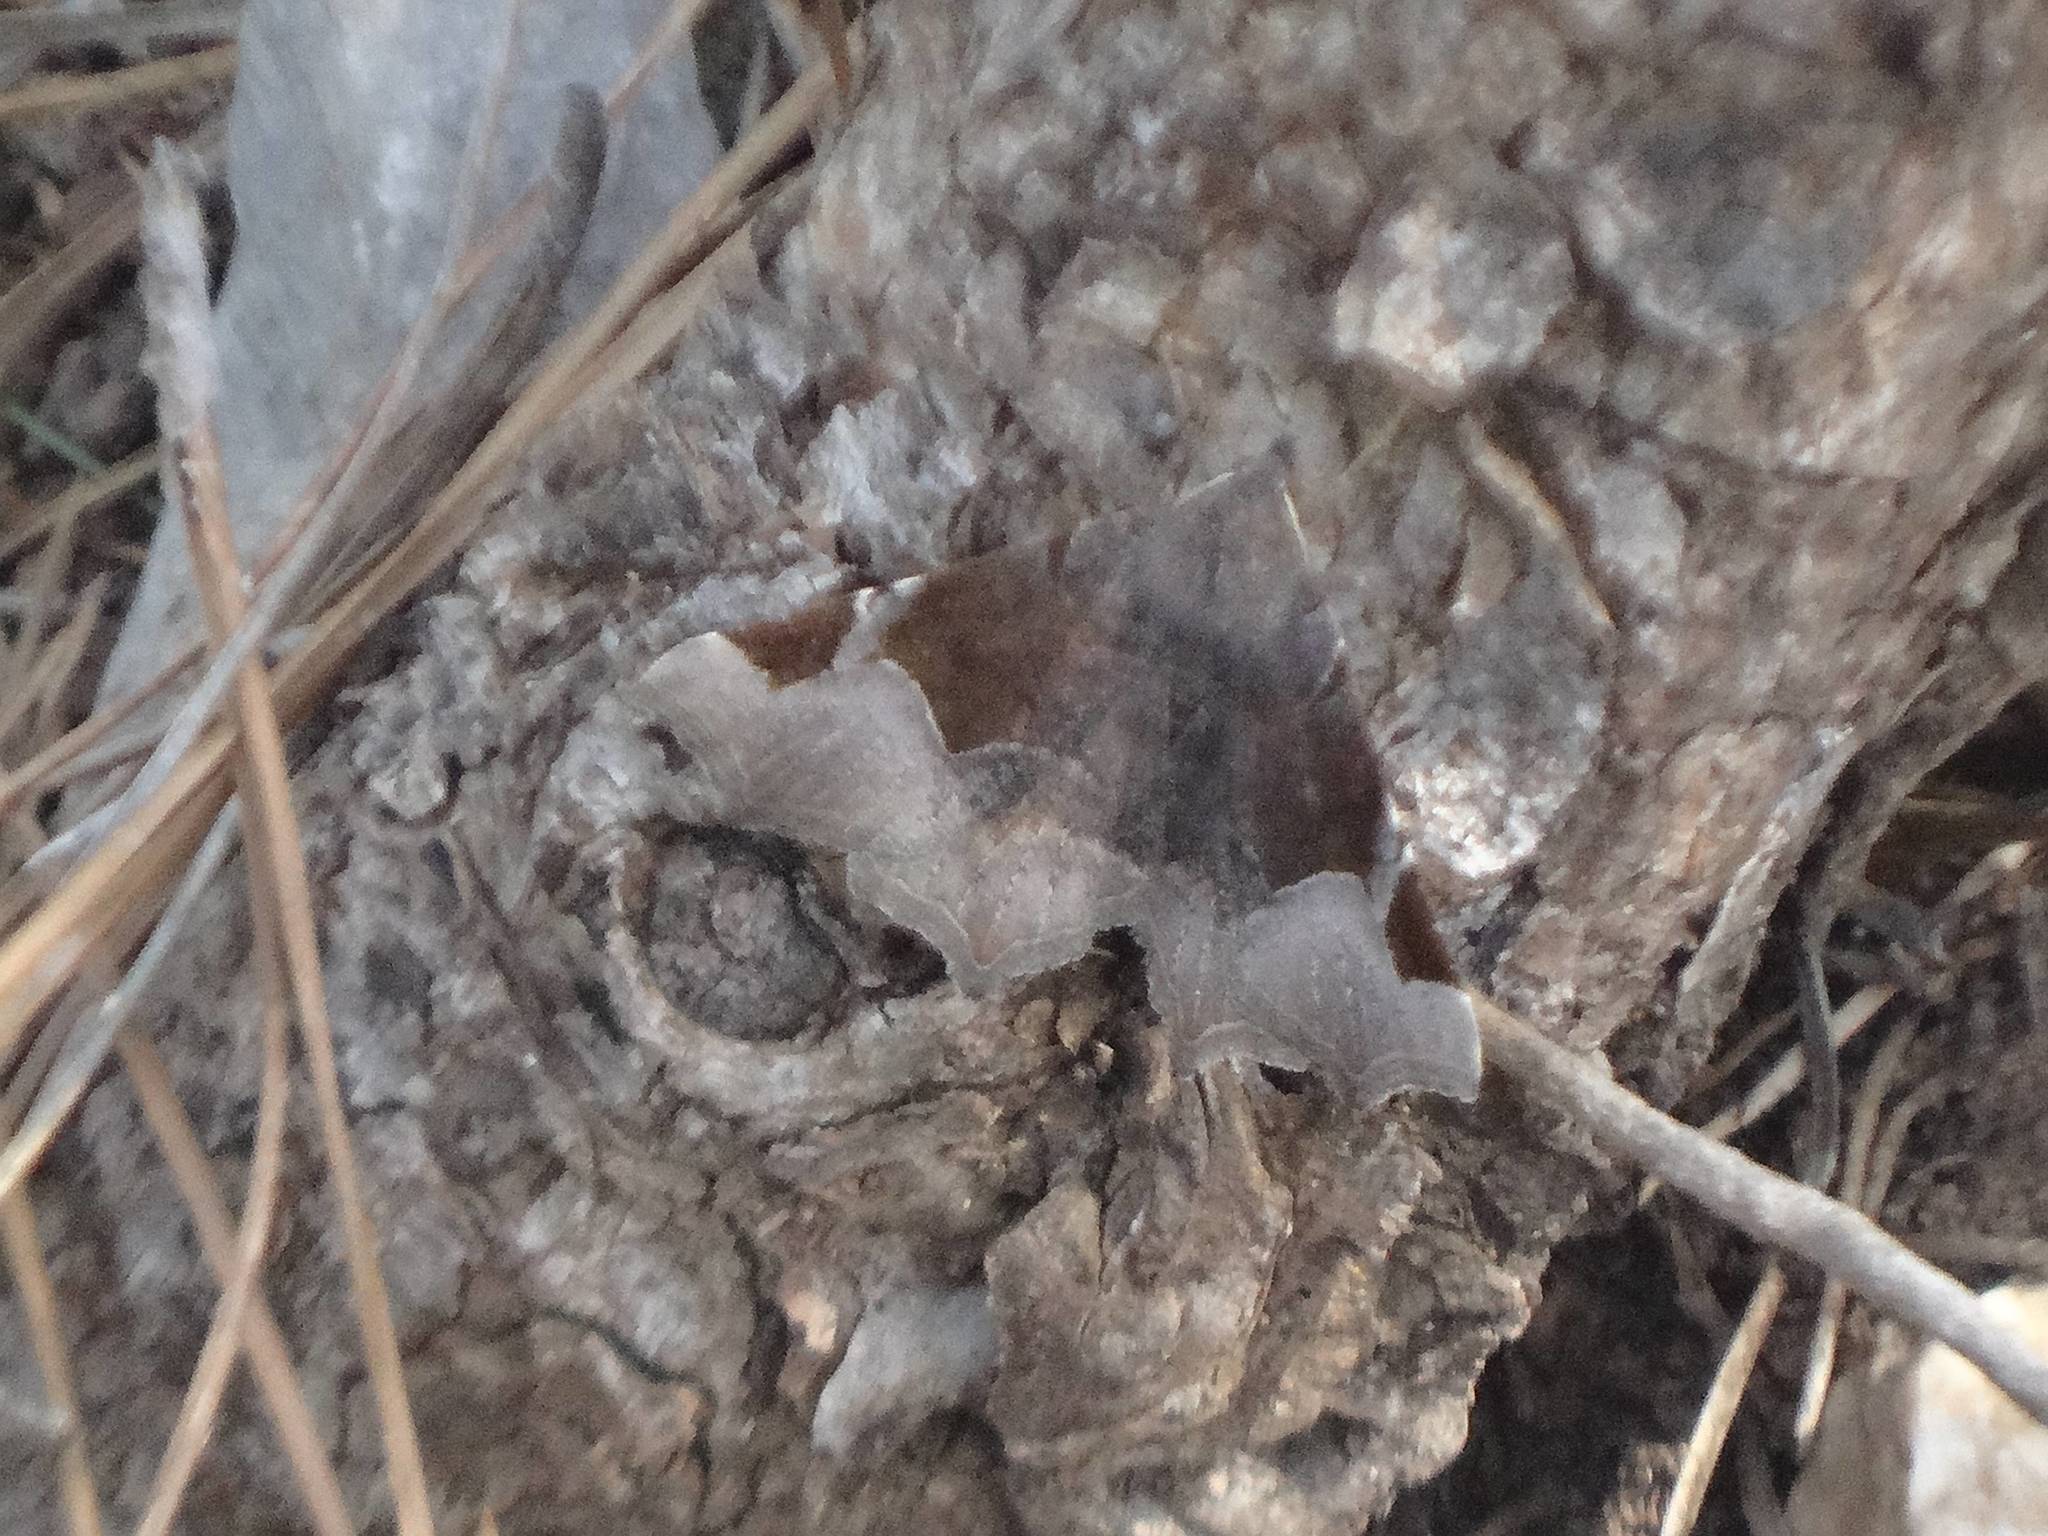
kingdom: Animalia
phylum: Arthropoda
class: Insecta
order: Lepidoptera
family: Erebidae
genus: Zethes
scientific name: Zethes insularis
